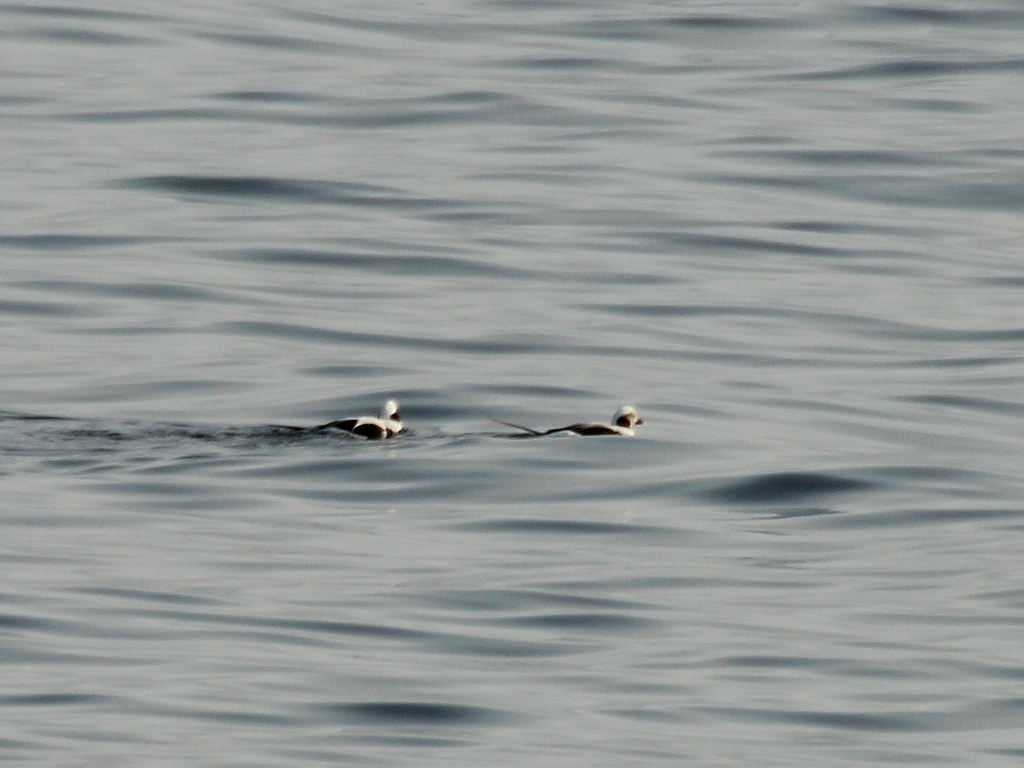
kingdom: Animalia
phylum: Chordata
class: Aves
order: Anseriformes
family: Anatidae
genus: Clangula
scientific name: Clangula hyemalis
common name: Long-tailed duck
